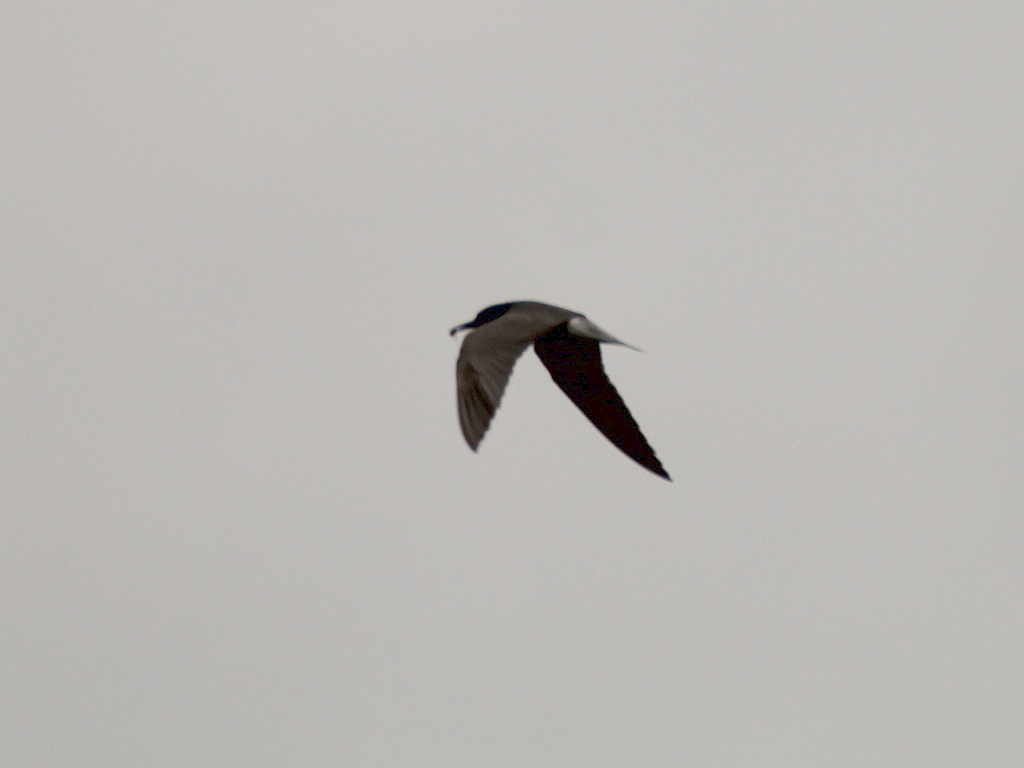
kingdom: Animalia
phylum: Chordata
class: Aves
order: Charadriiformes
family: Laridae
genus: Chlidonias
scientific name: Chlidonias niger
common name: Black tern
